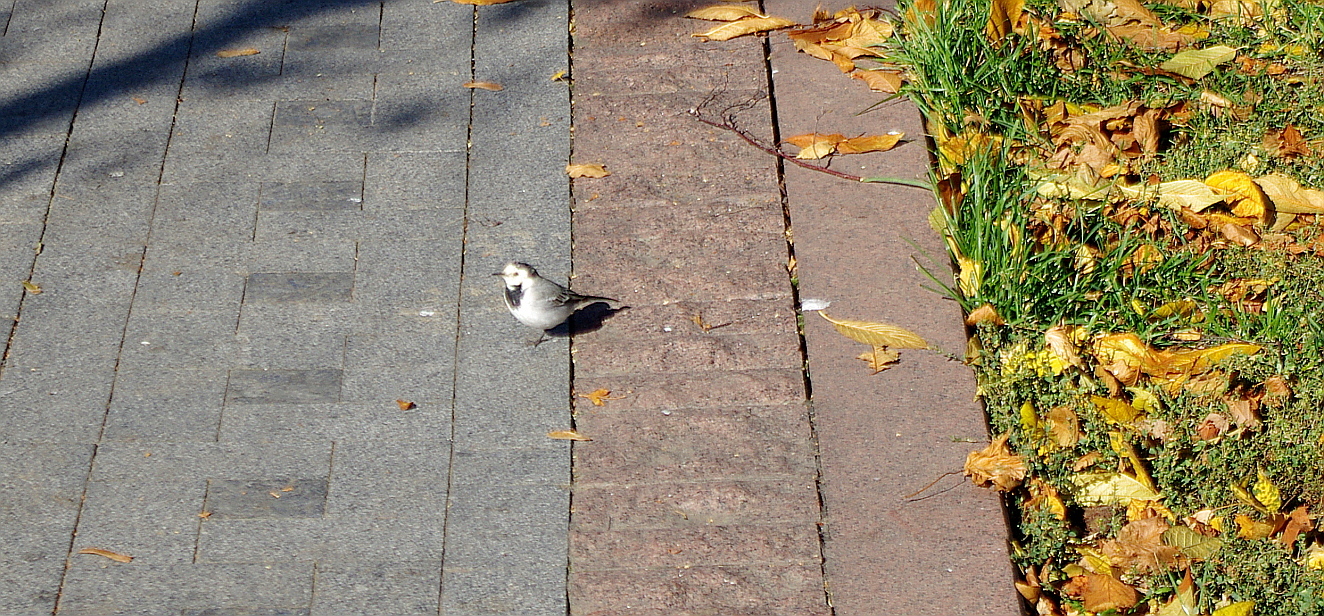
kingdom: Animalia
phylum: Chordata
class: Aves
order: Passeriformes
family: Motacillidae
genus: Motacilla
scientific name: Motacilla alba
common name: White wagtail
